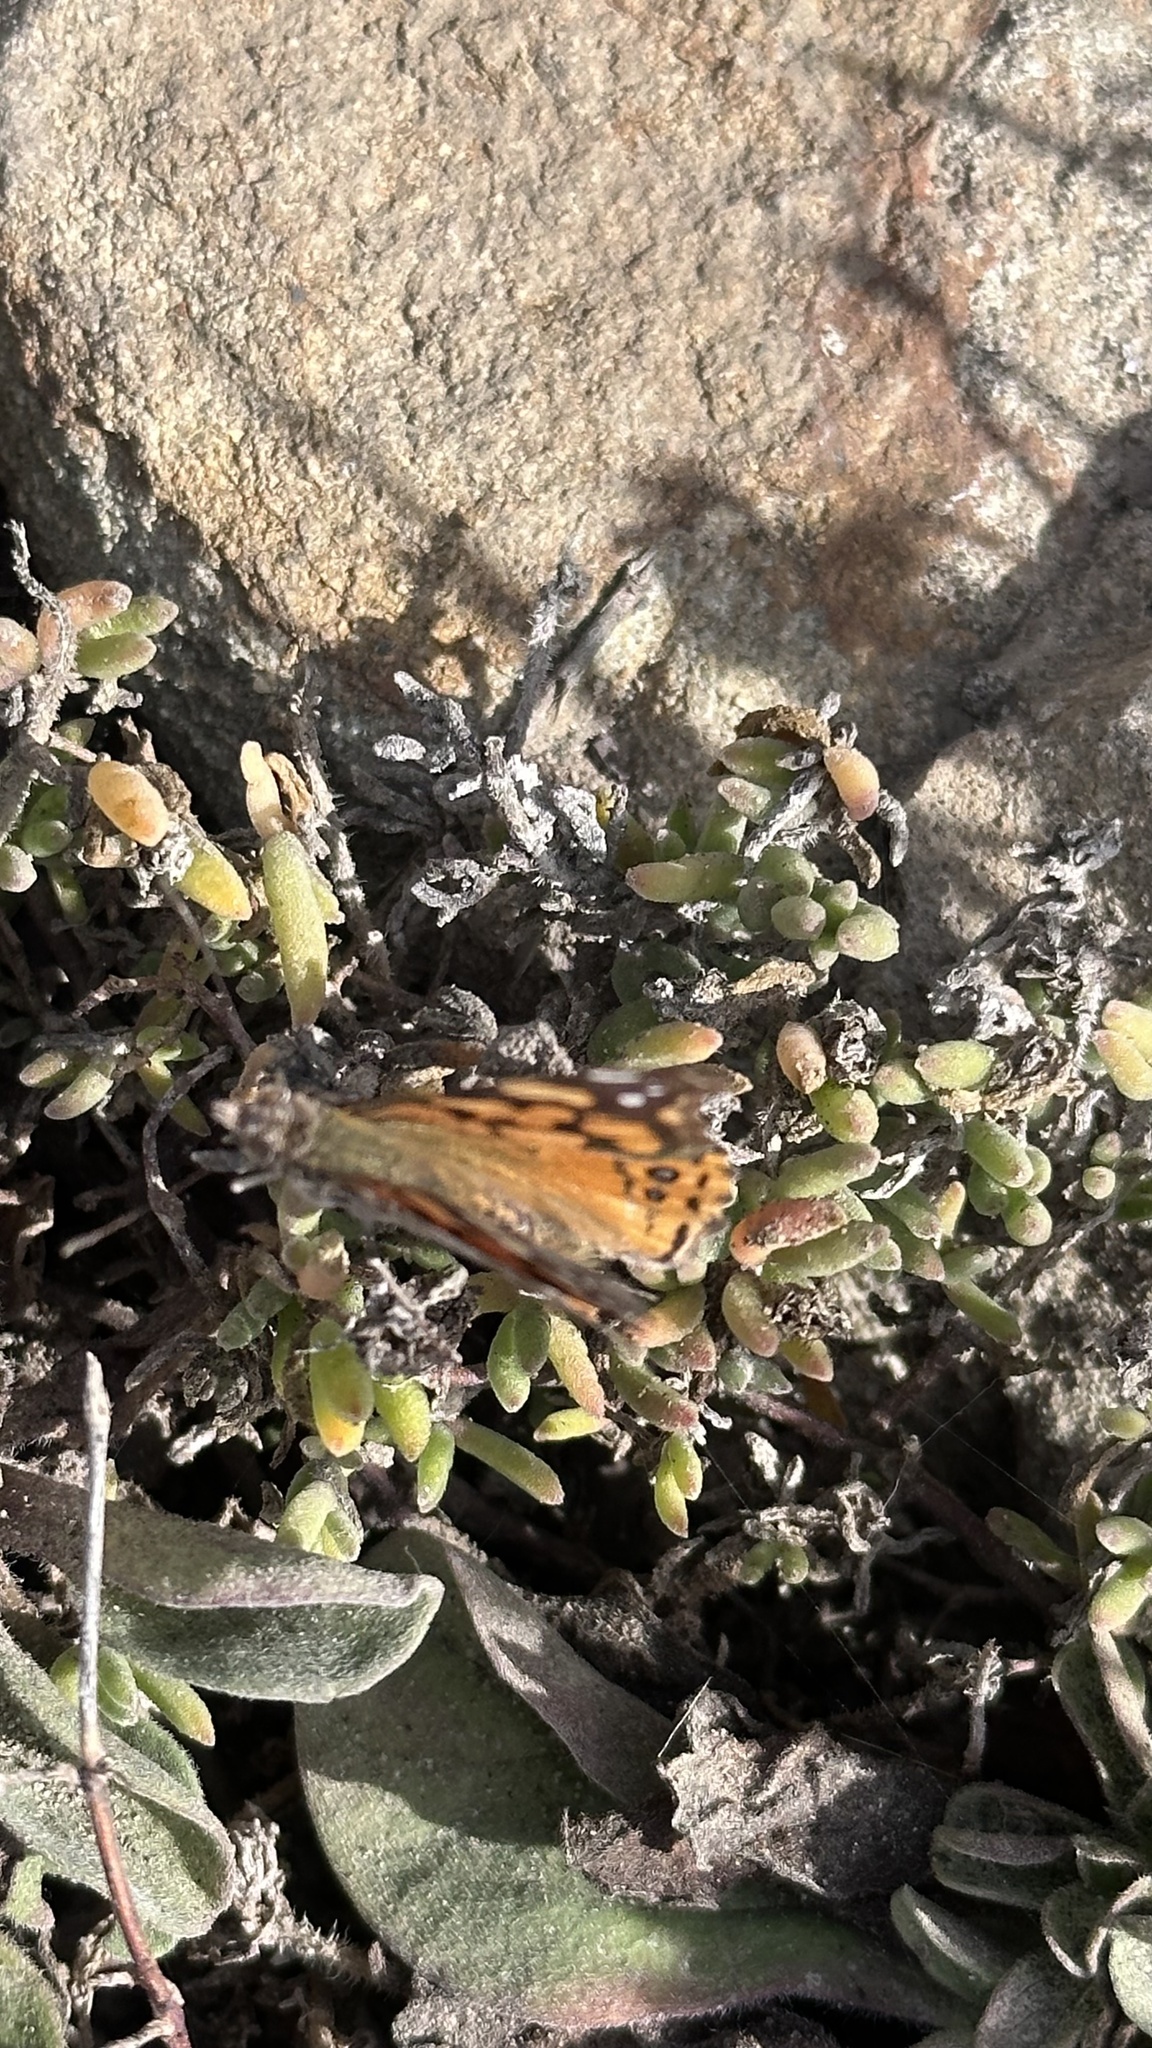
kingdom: Animalia
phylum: Arthropoda
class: Insecta
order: Lepidoptera
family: Nymphalidae
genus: Vanessa
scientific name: Vanessa annabella
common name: West coast lady
